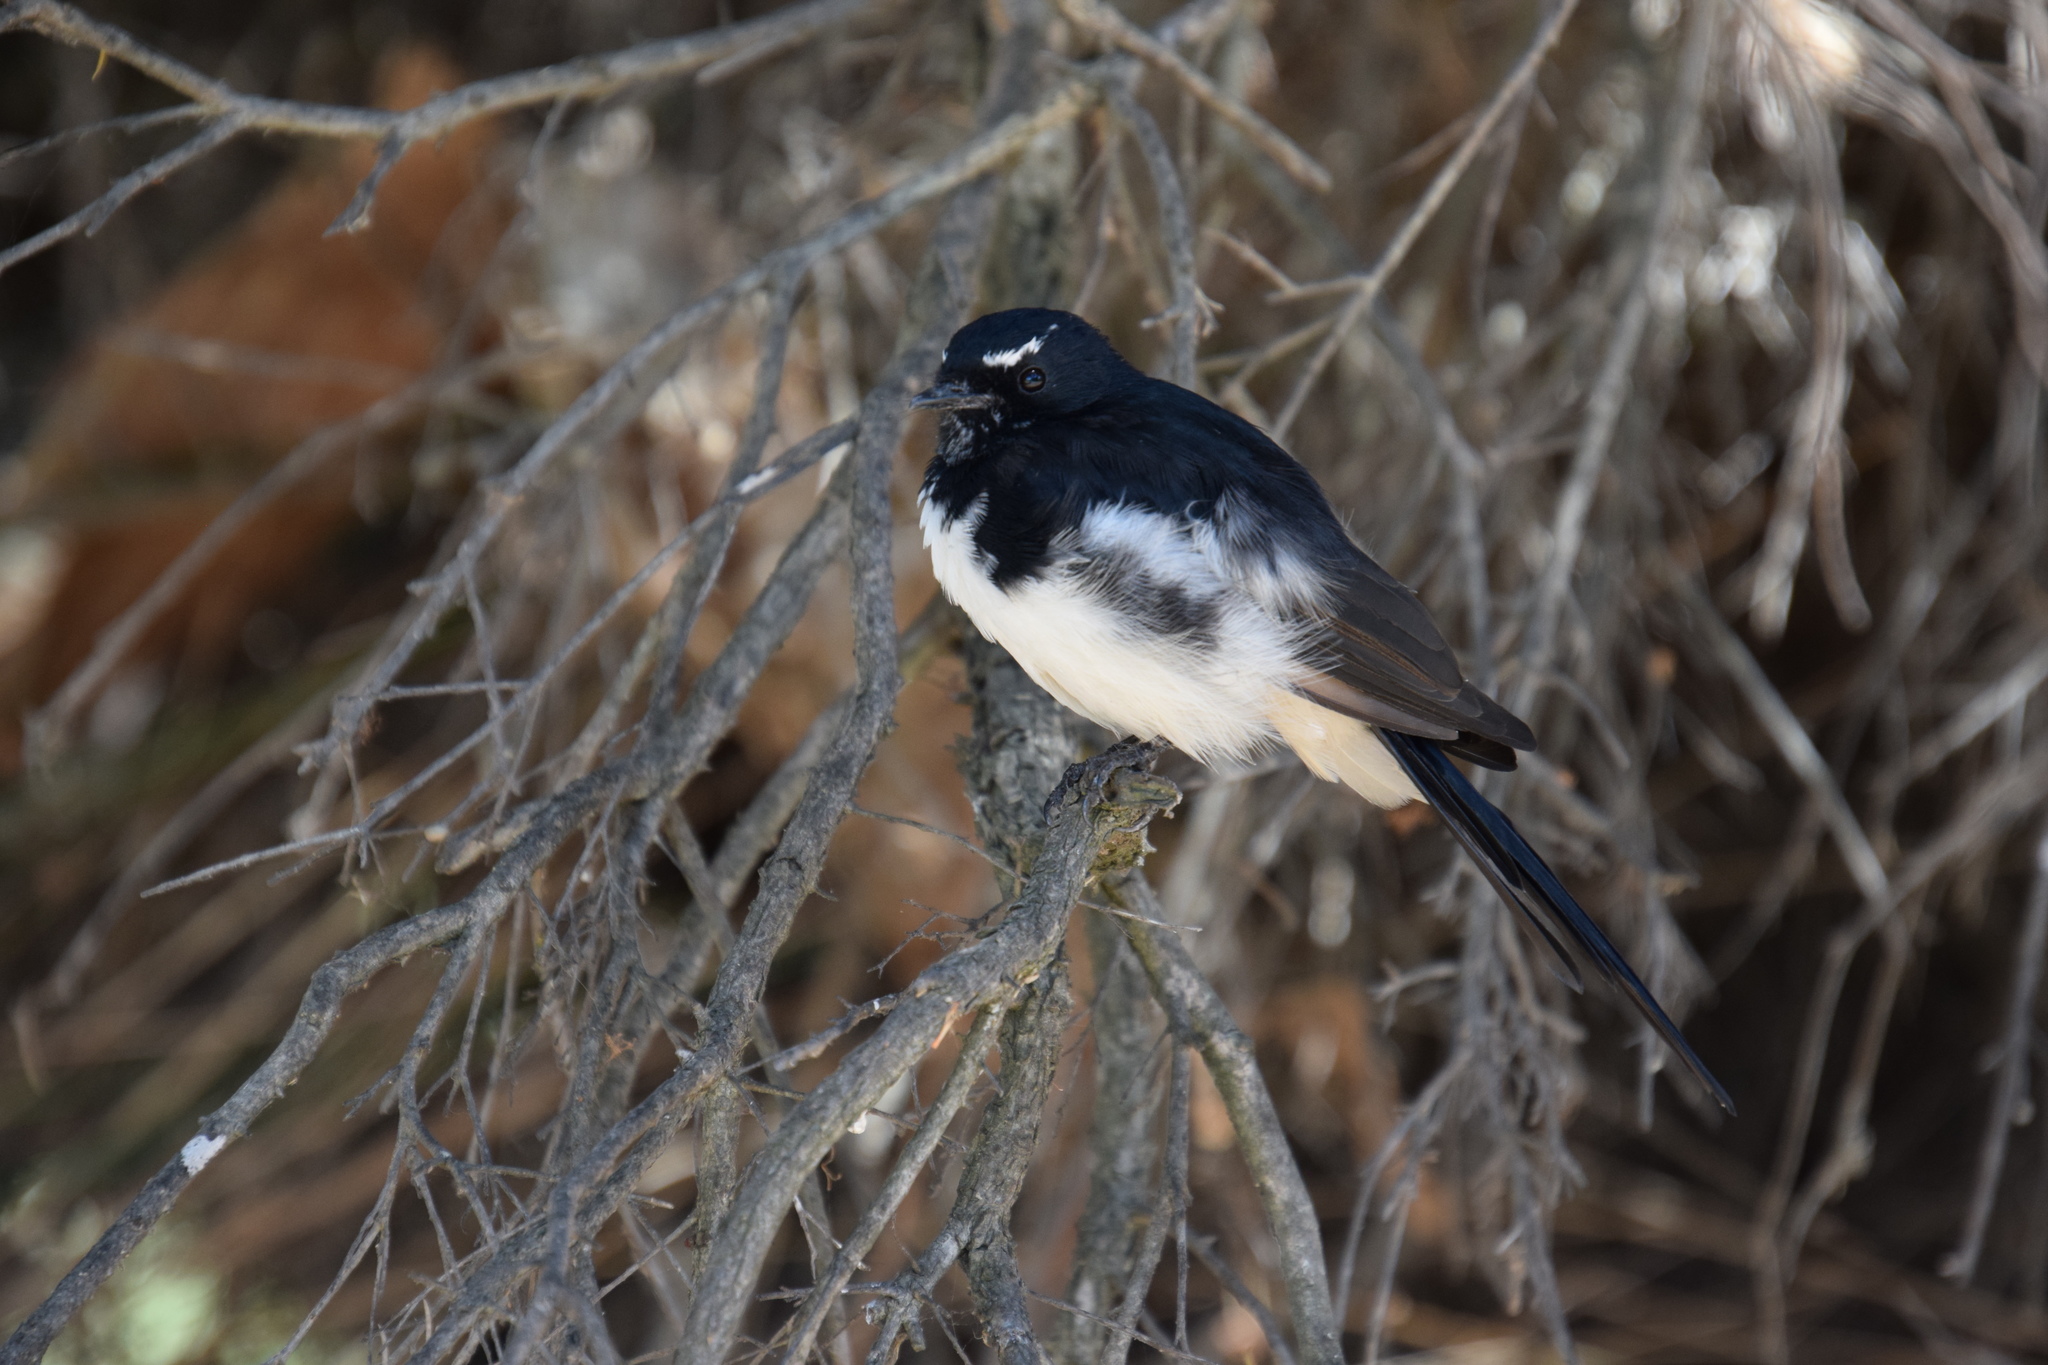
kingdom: Animalia
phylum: Chordata
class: Aves
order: Passeriformes
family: Rhipiduridae
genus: Rhipidura
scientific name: Rhipidura leucophrys
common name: Willie wagtail
